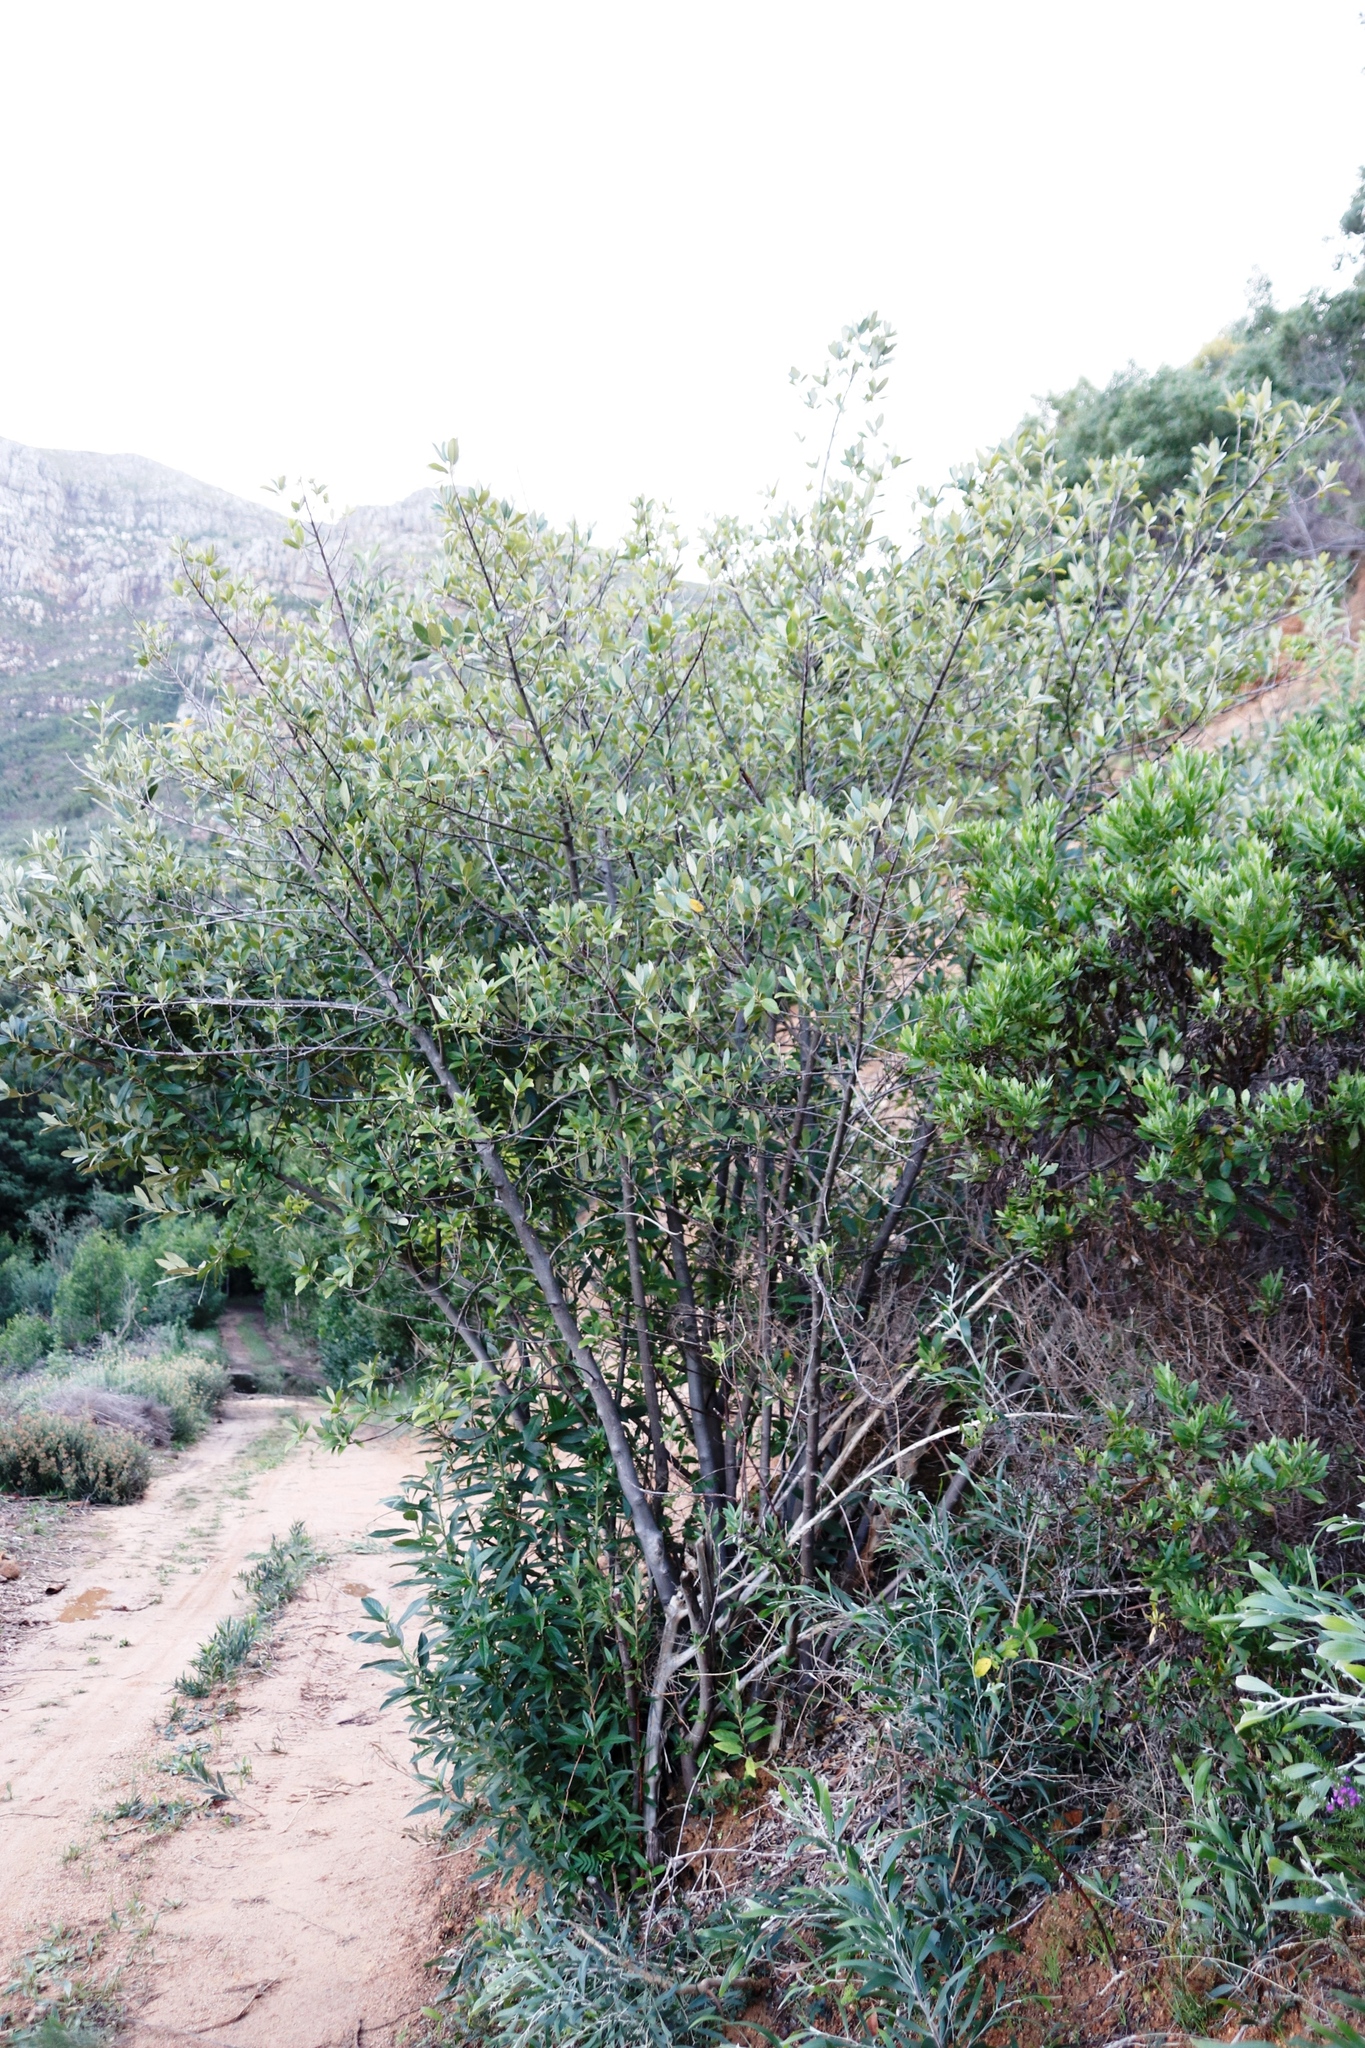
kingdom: Plantae
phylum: Tracheophyta
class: Magnoliopsida
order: Malpighiales
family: Achariaceae
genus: Kiggelaria
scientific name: Kiggelaria africana
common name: Wild peach
